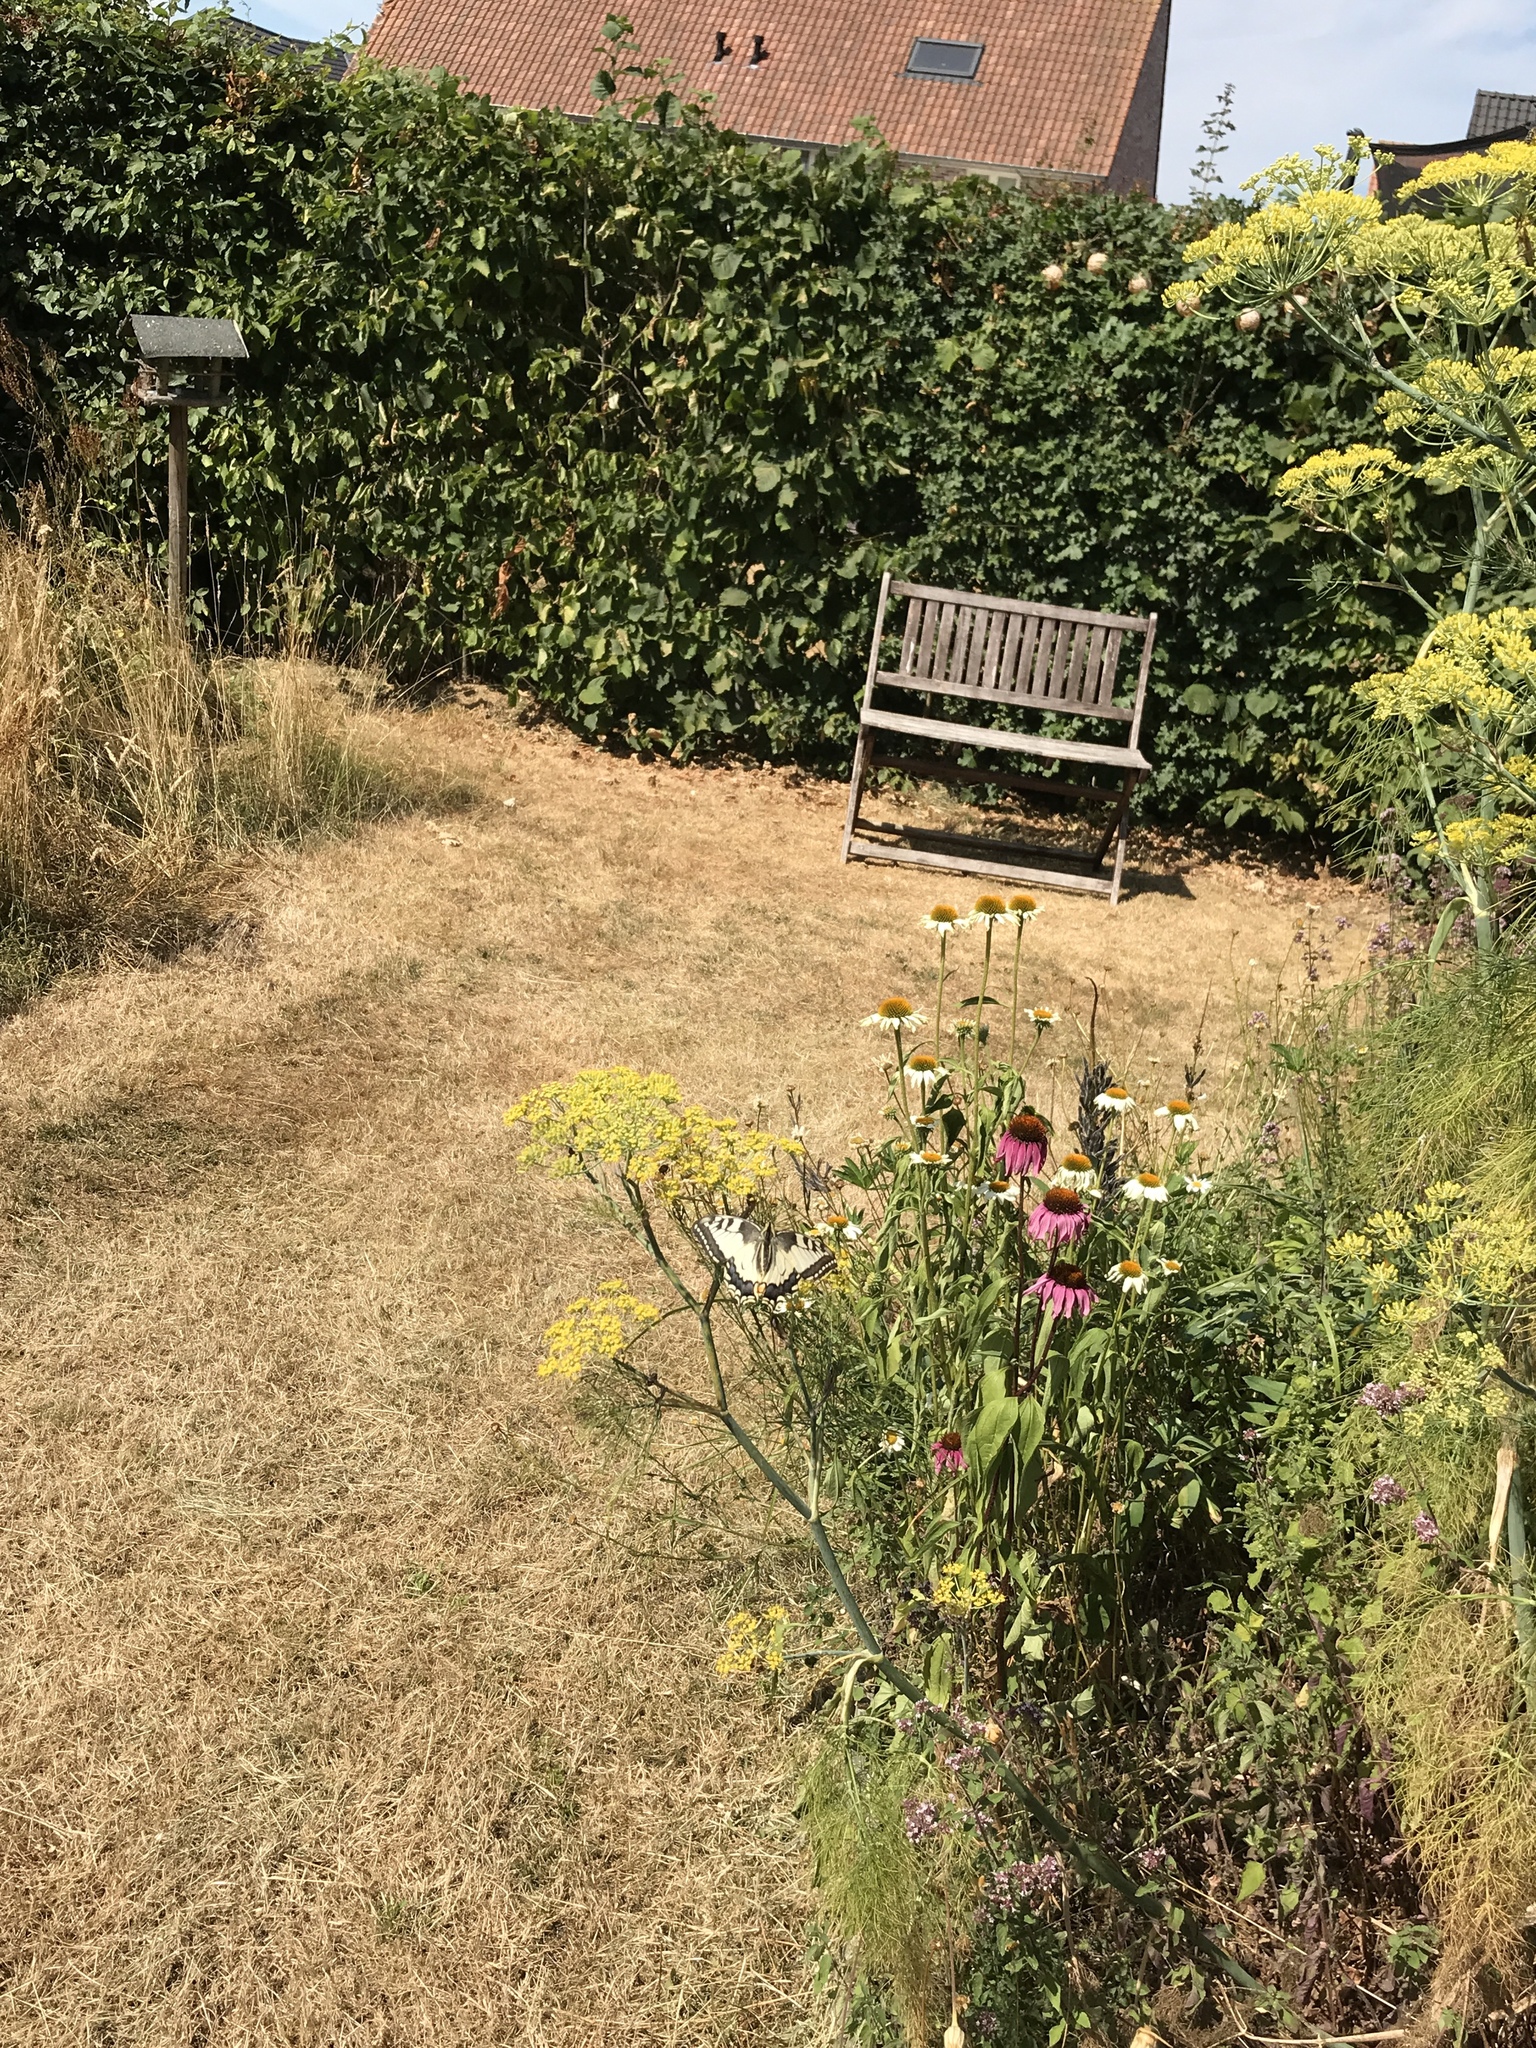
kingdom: Animalia
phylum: Arthropoda
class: Insecta
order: Lepidoptera
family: Papilionidae
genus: Papilio
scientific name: Papilio machaon
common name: Swallowtail
